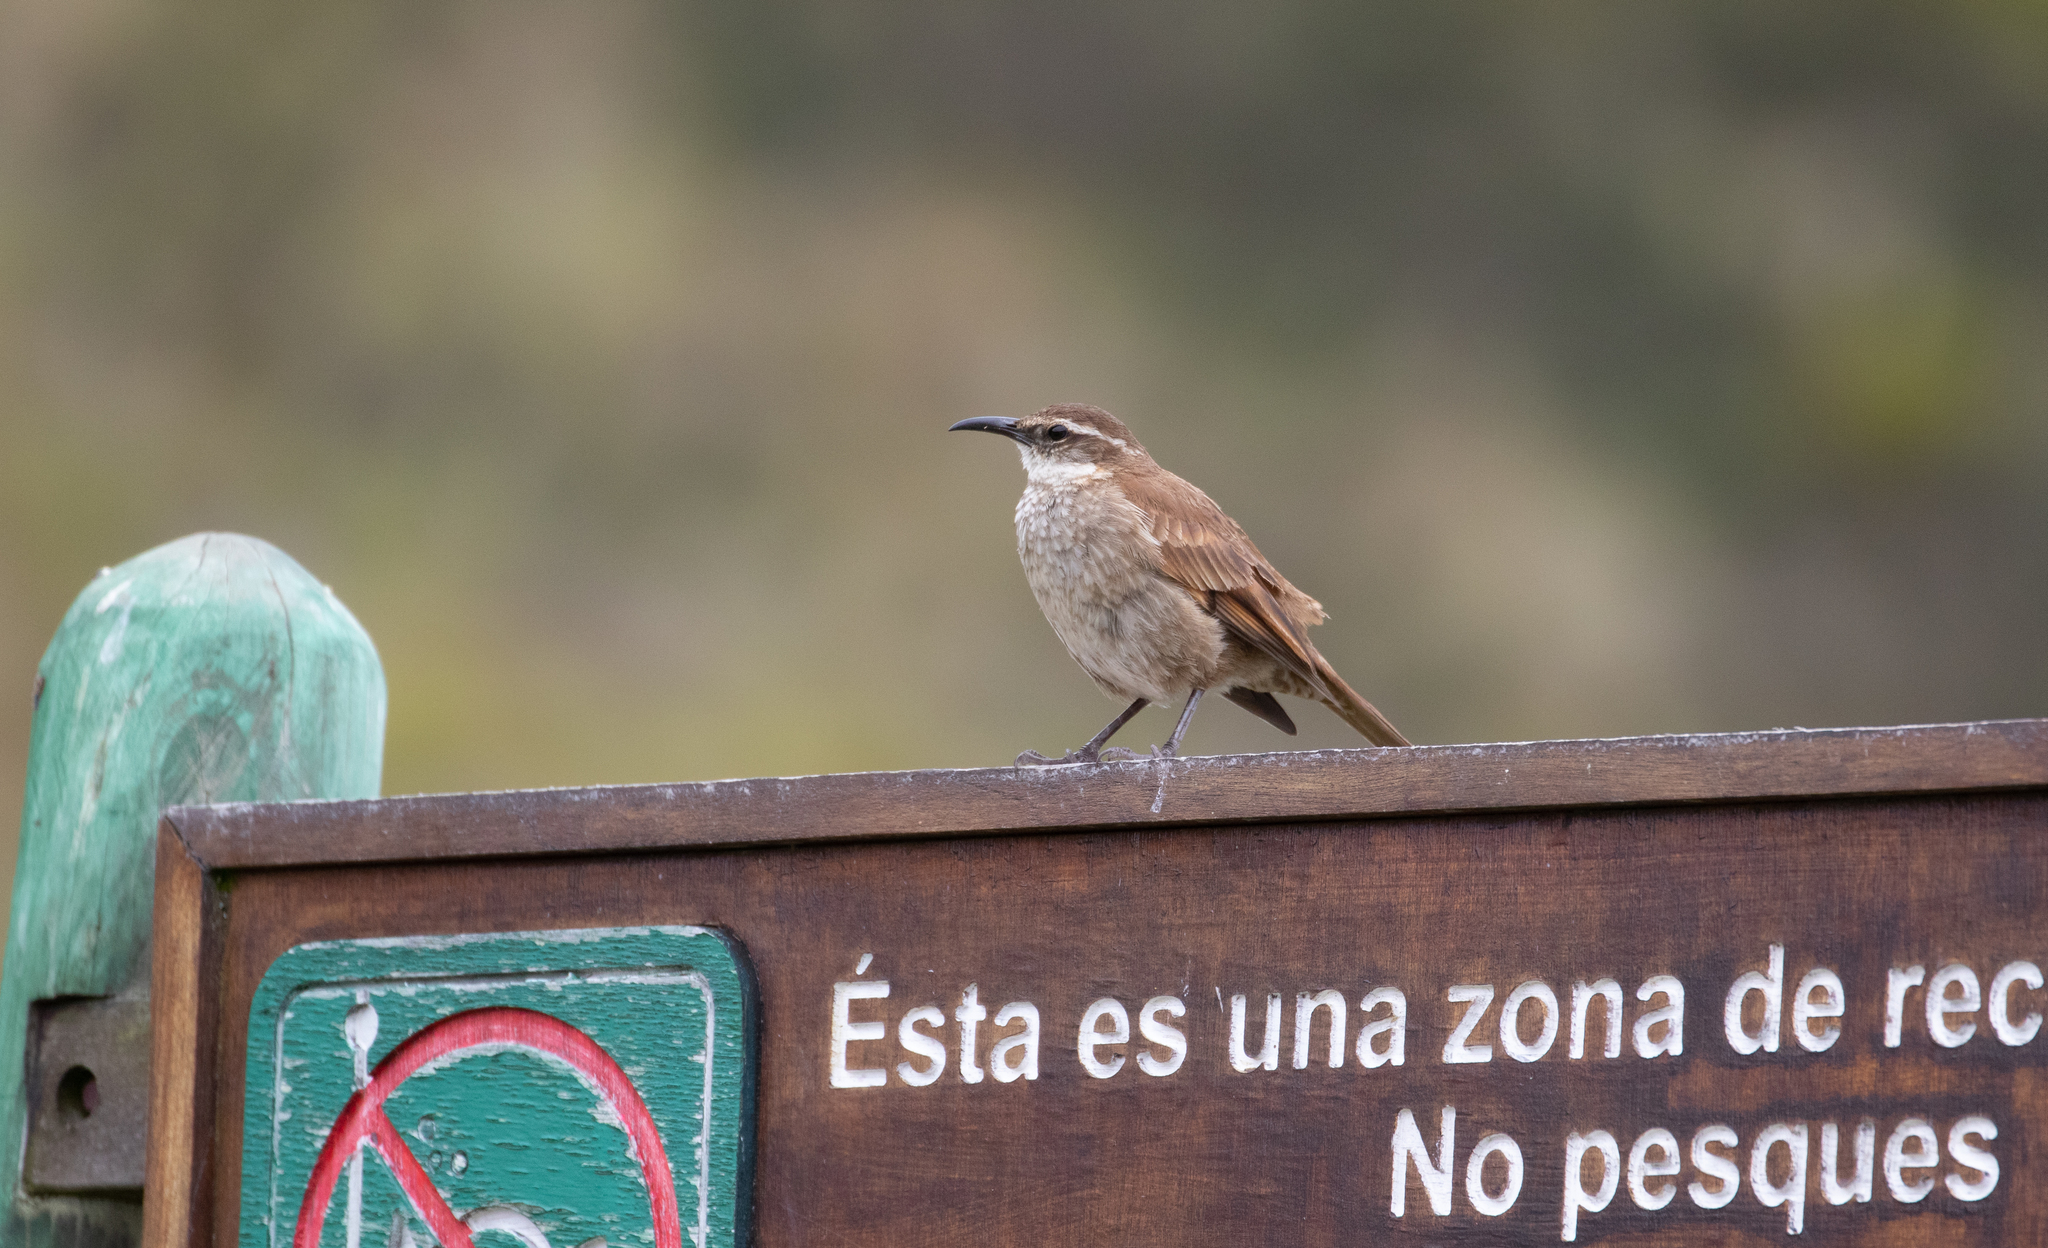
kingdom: Animalia
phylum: Chordata
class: Aves
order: Passeriformes
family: Furnariidae
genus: Cinclodes
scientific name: Cinclodes excelsior
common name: Stout-billed cinclodes
